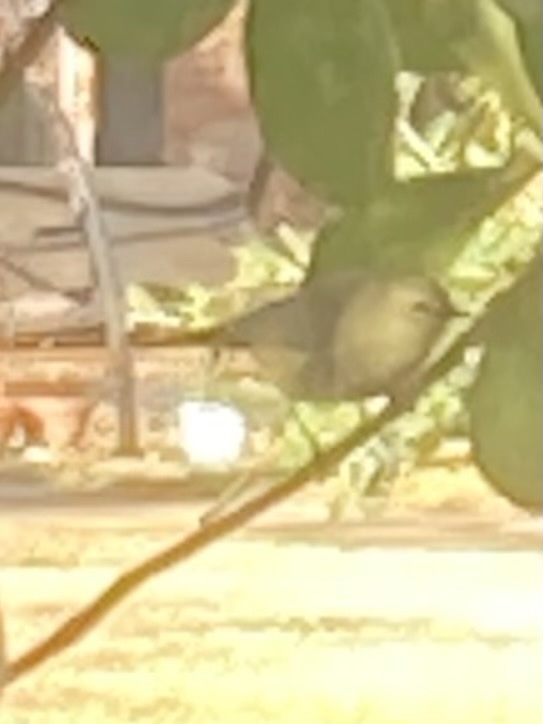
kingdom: Animalia
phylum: Chordata
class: Aves
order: Passeriformes
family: Parulidae
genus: Leiothlypis
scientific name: Leiothlypis celata
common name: Orange-crowned warbler
